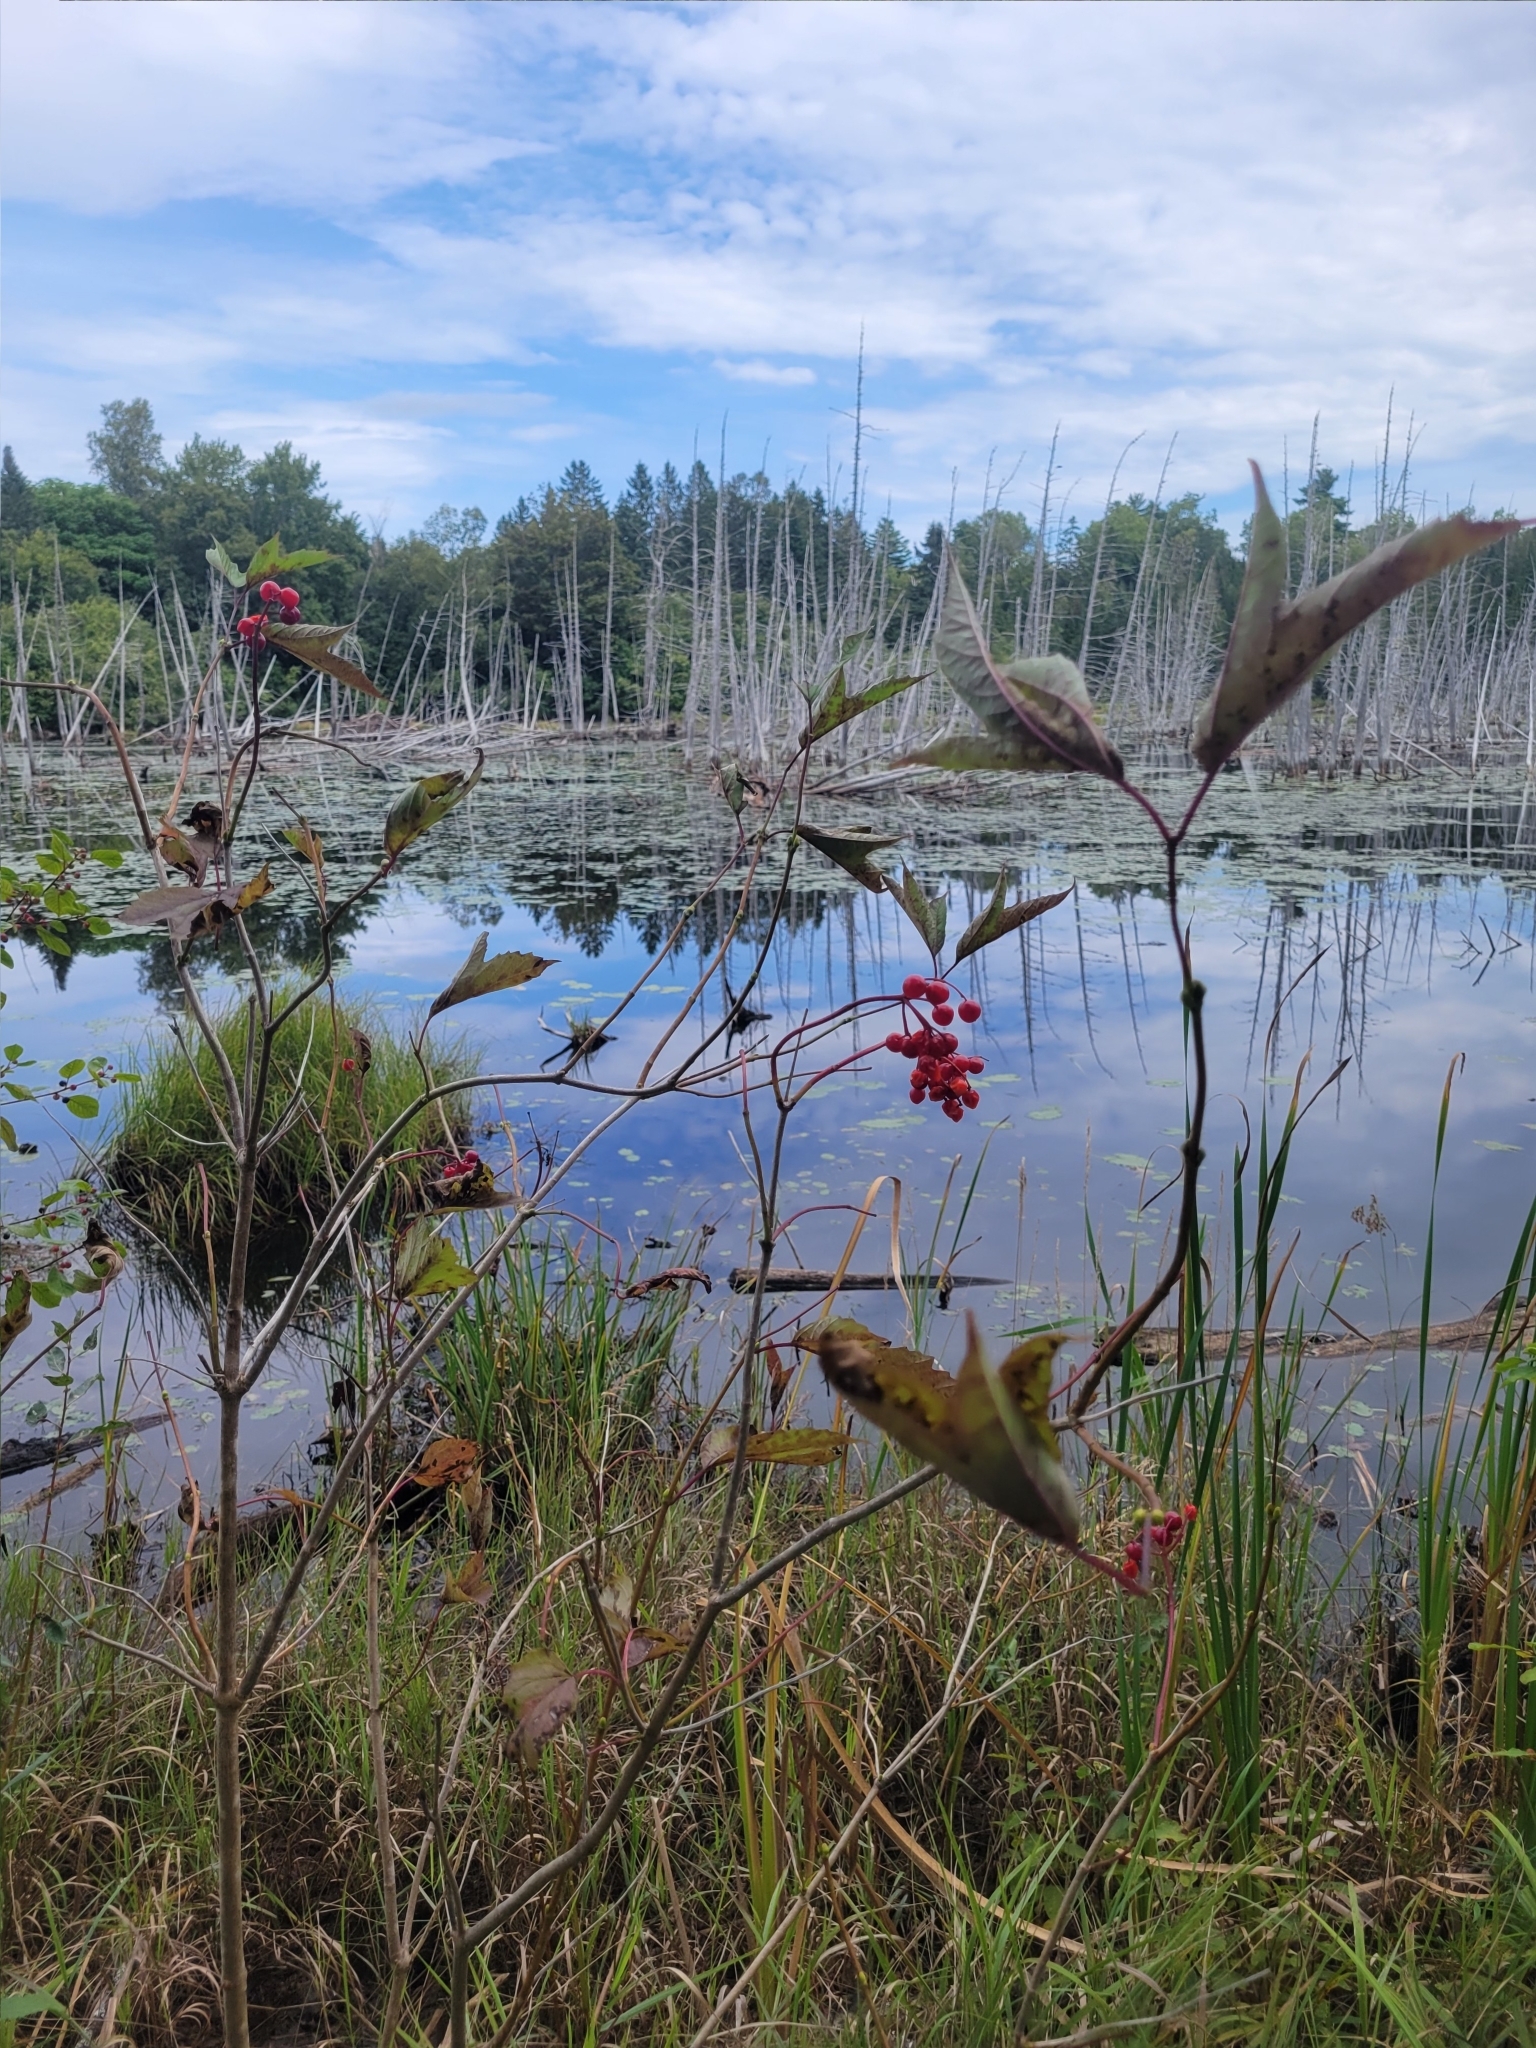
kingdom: Plantae
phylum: Tracheophyta
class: Magnoliopsida
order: Dipsacales
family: Viburnaceae
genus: Viburnum
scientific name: Viburnum opulus
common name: Guelder-rose
